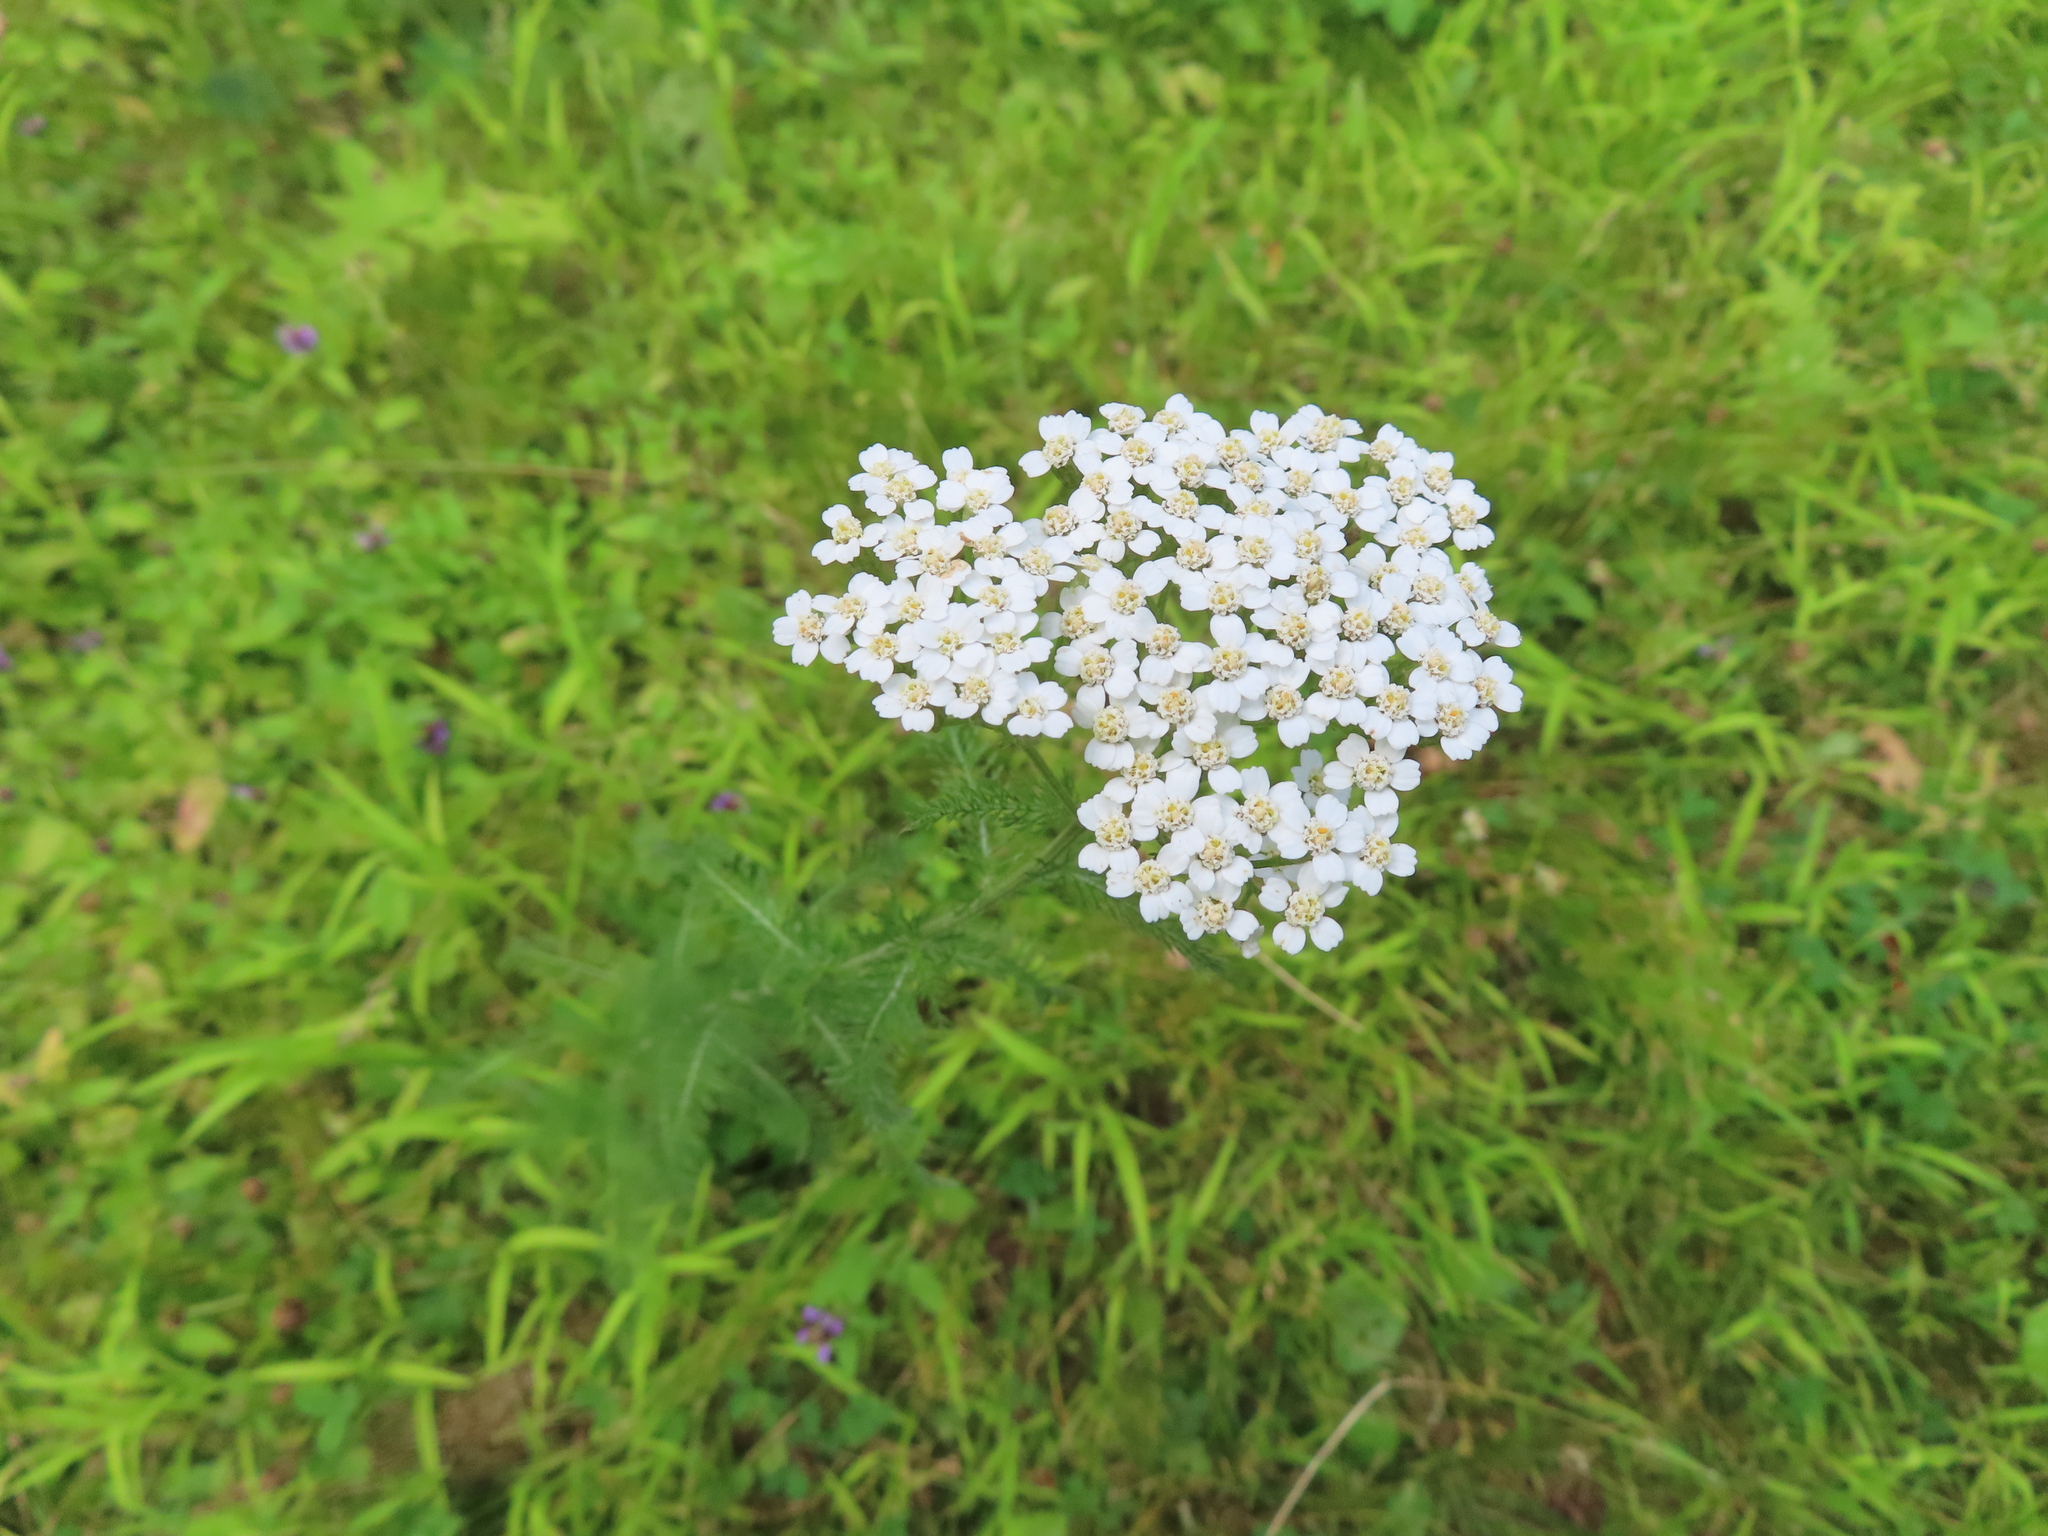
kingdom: Plantae
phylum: Tracheophyta
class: Magnoliopsida
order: Asterales
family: Asteraceae
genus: Achillea
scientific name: Achillea millefolium
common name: Yarrow
